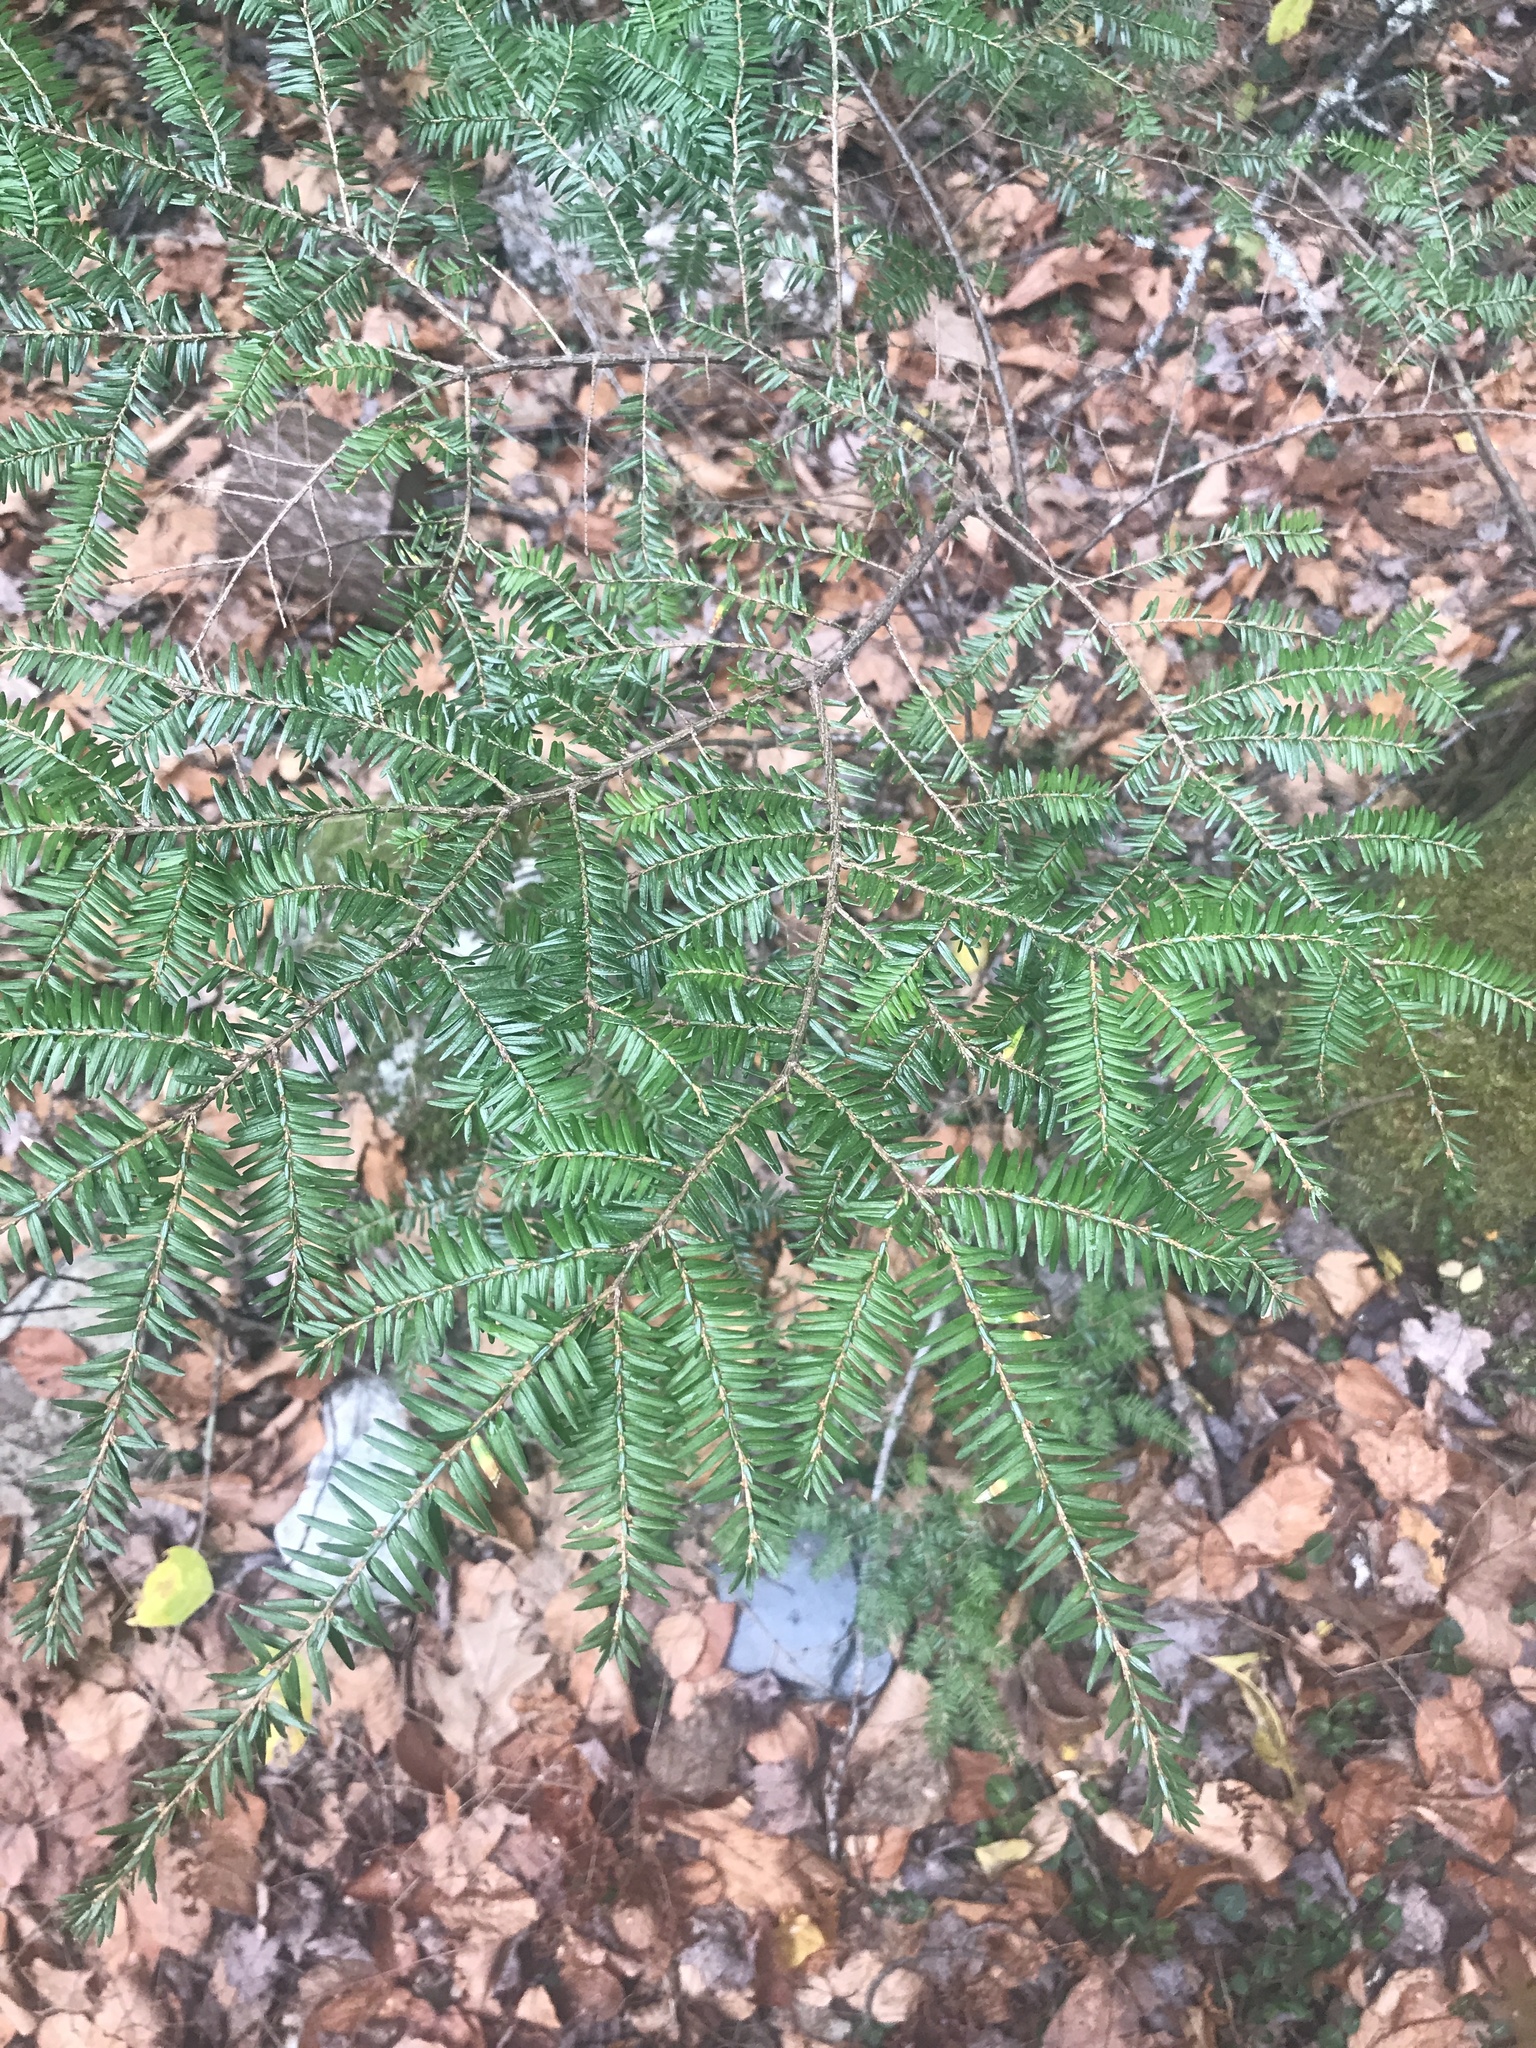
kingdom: Plantae
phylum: Tracheophyta
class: Pinopsida
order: Pinales
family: Pinaceae
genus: Tsuga
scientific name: Tsuga canadensis
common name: Eastern hemlock
